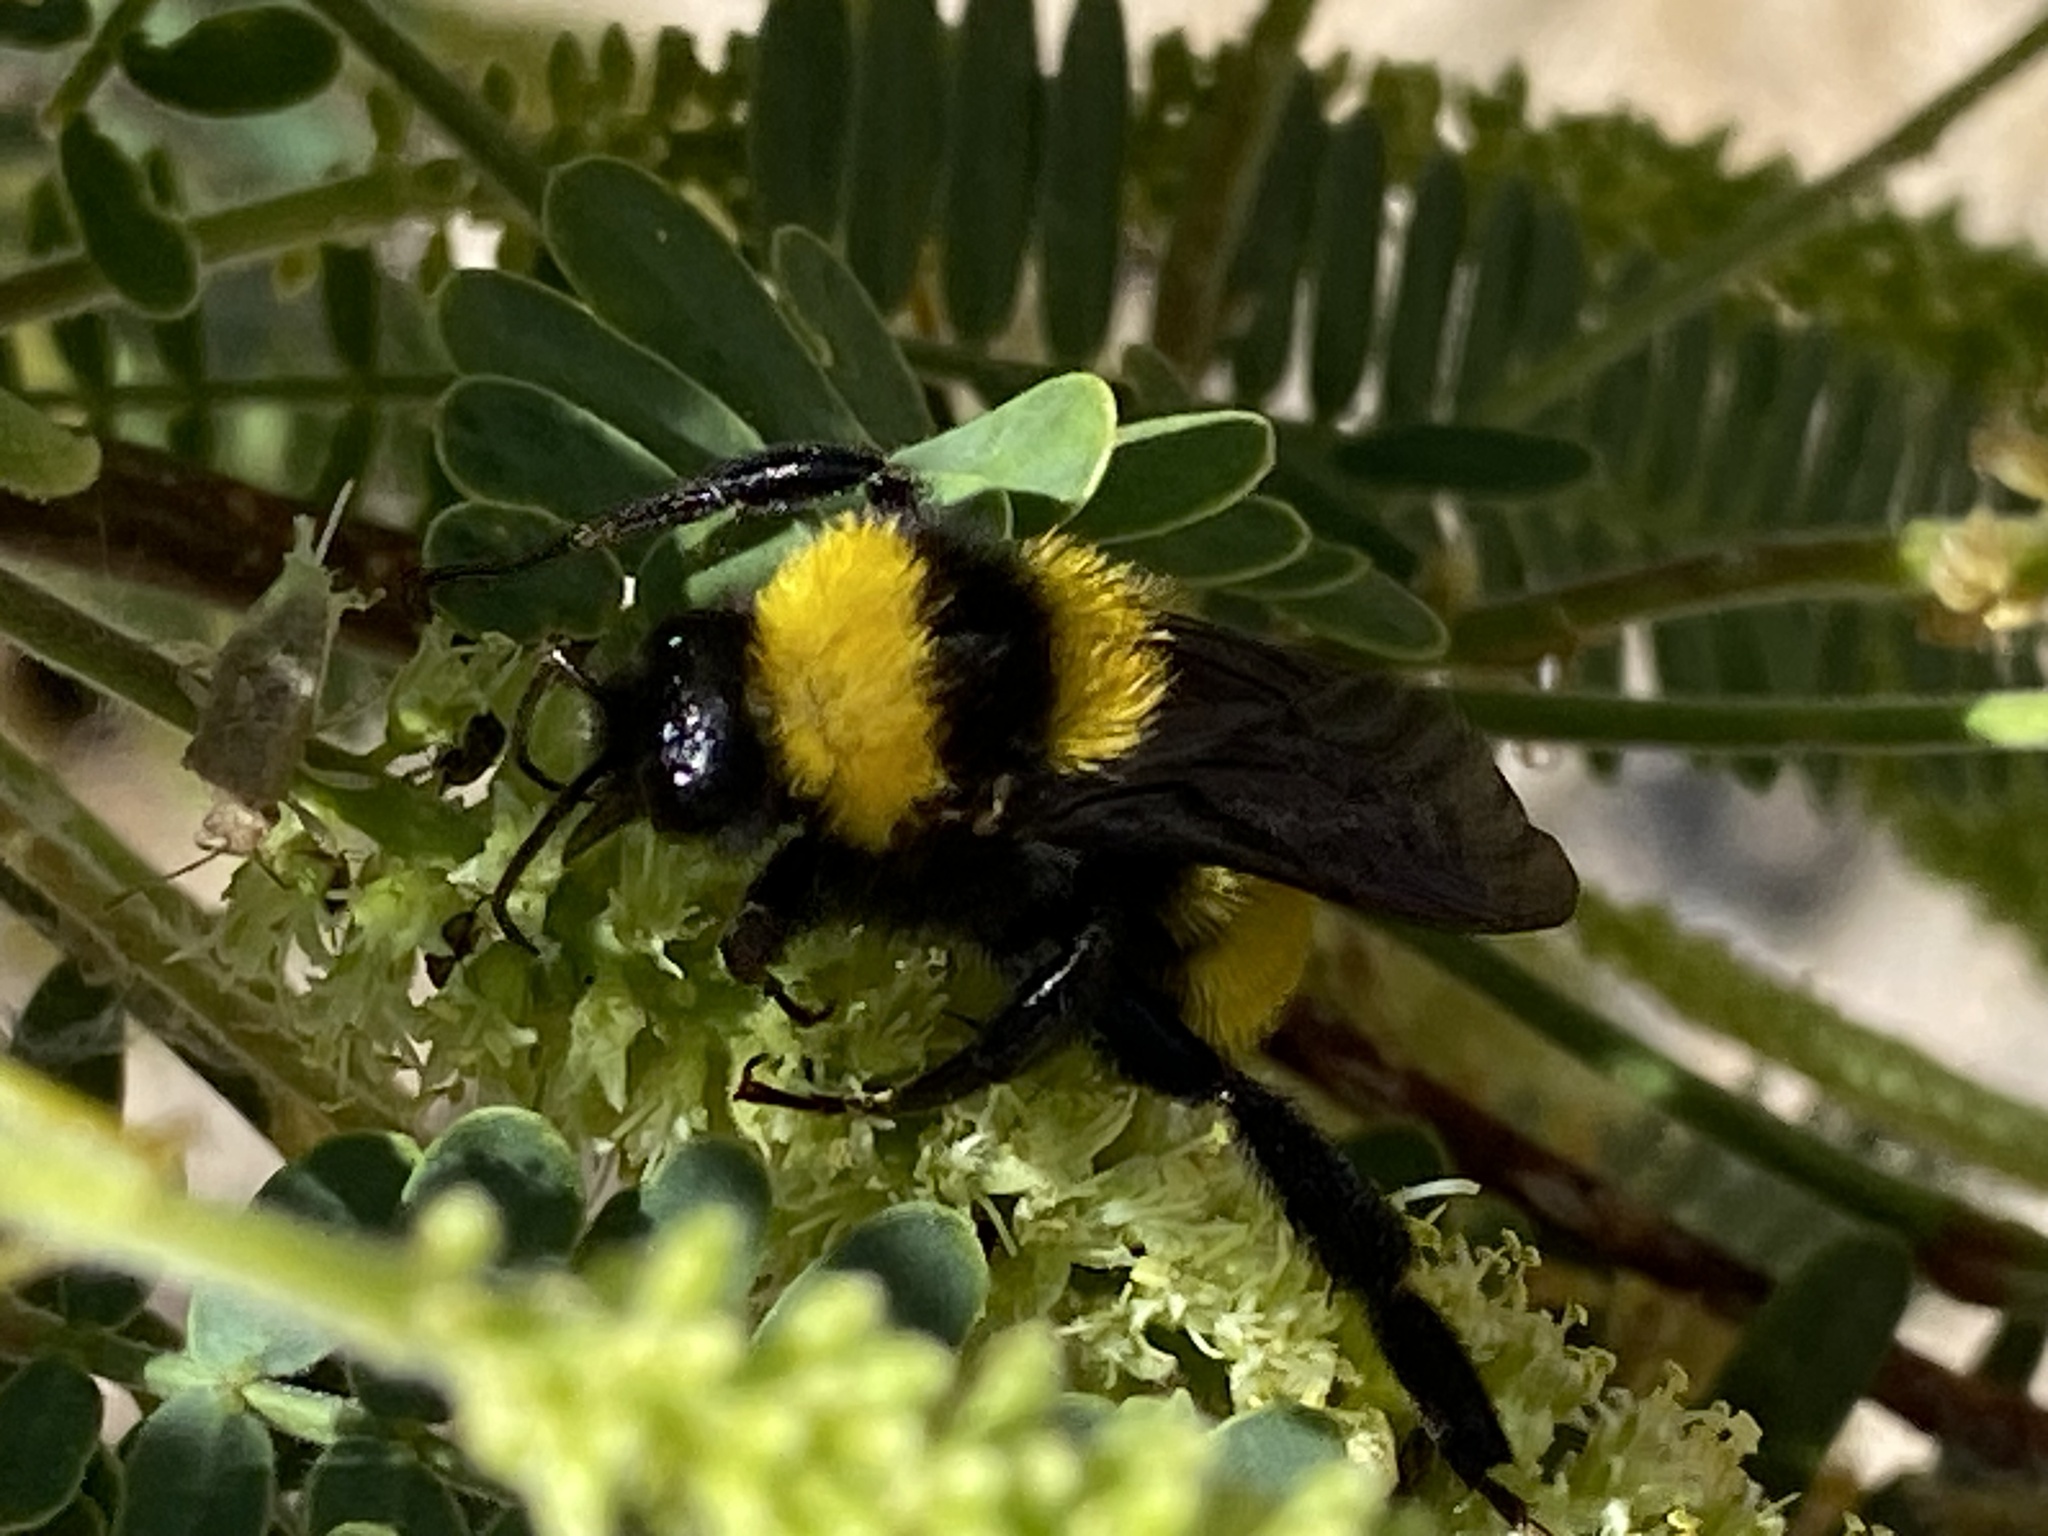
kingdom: Animalia
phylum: Arthropoda
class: Insecta
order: Hymenoptera
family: Apidae
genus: Bombus
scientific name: Bombus sonorus
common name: Sonoran bumble bee
